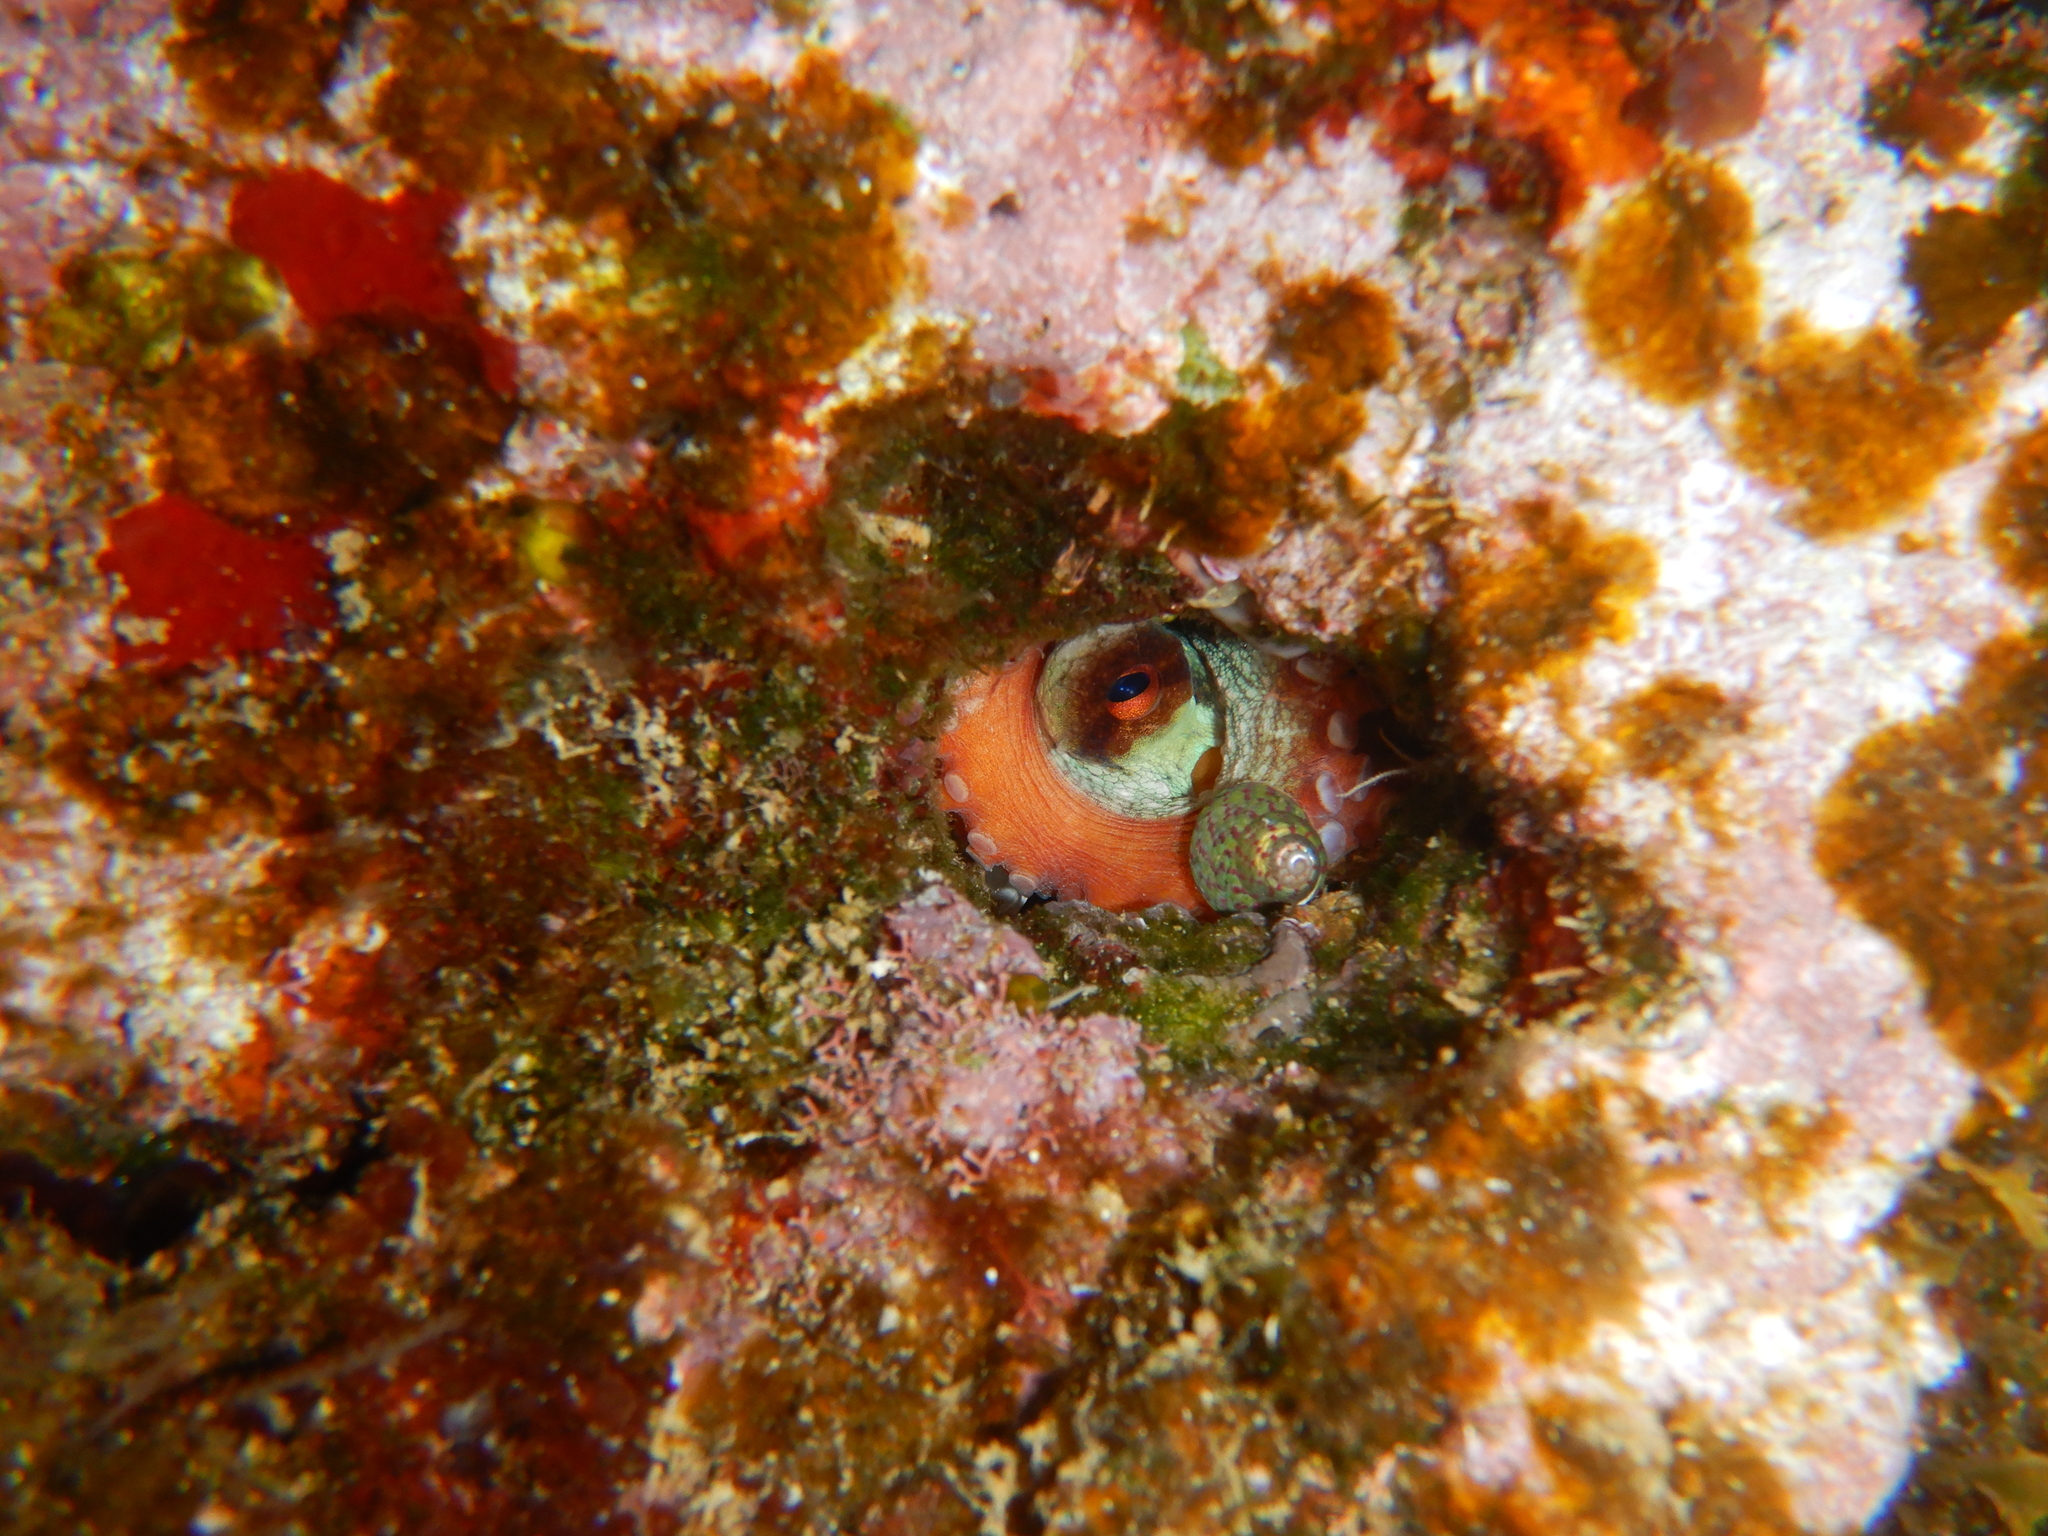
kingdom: Animalia
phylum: Mollusca
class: Cephalopoda
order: Octopoda
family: Octopodidae
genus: Octopus
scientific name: Octopus vulgaris
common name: Common octopus
